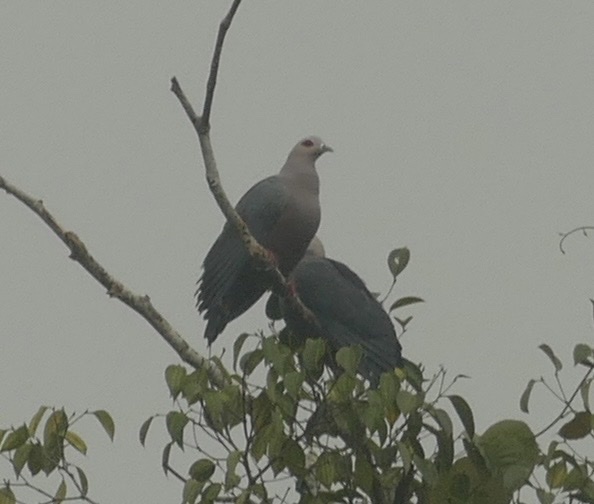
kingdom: Animalia
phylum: Chordata
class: Aves
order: Columbiformes
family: Columbidae
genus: Ducula
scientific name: Ducula pinon
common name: Pinon's imperial pigeon
